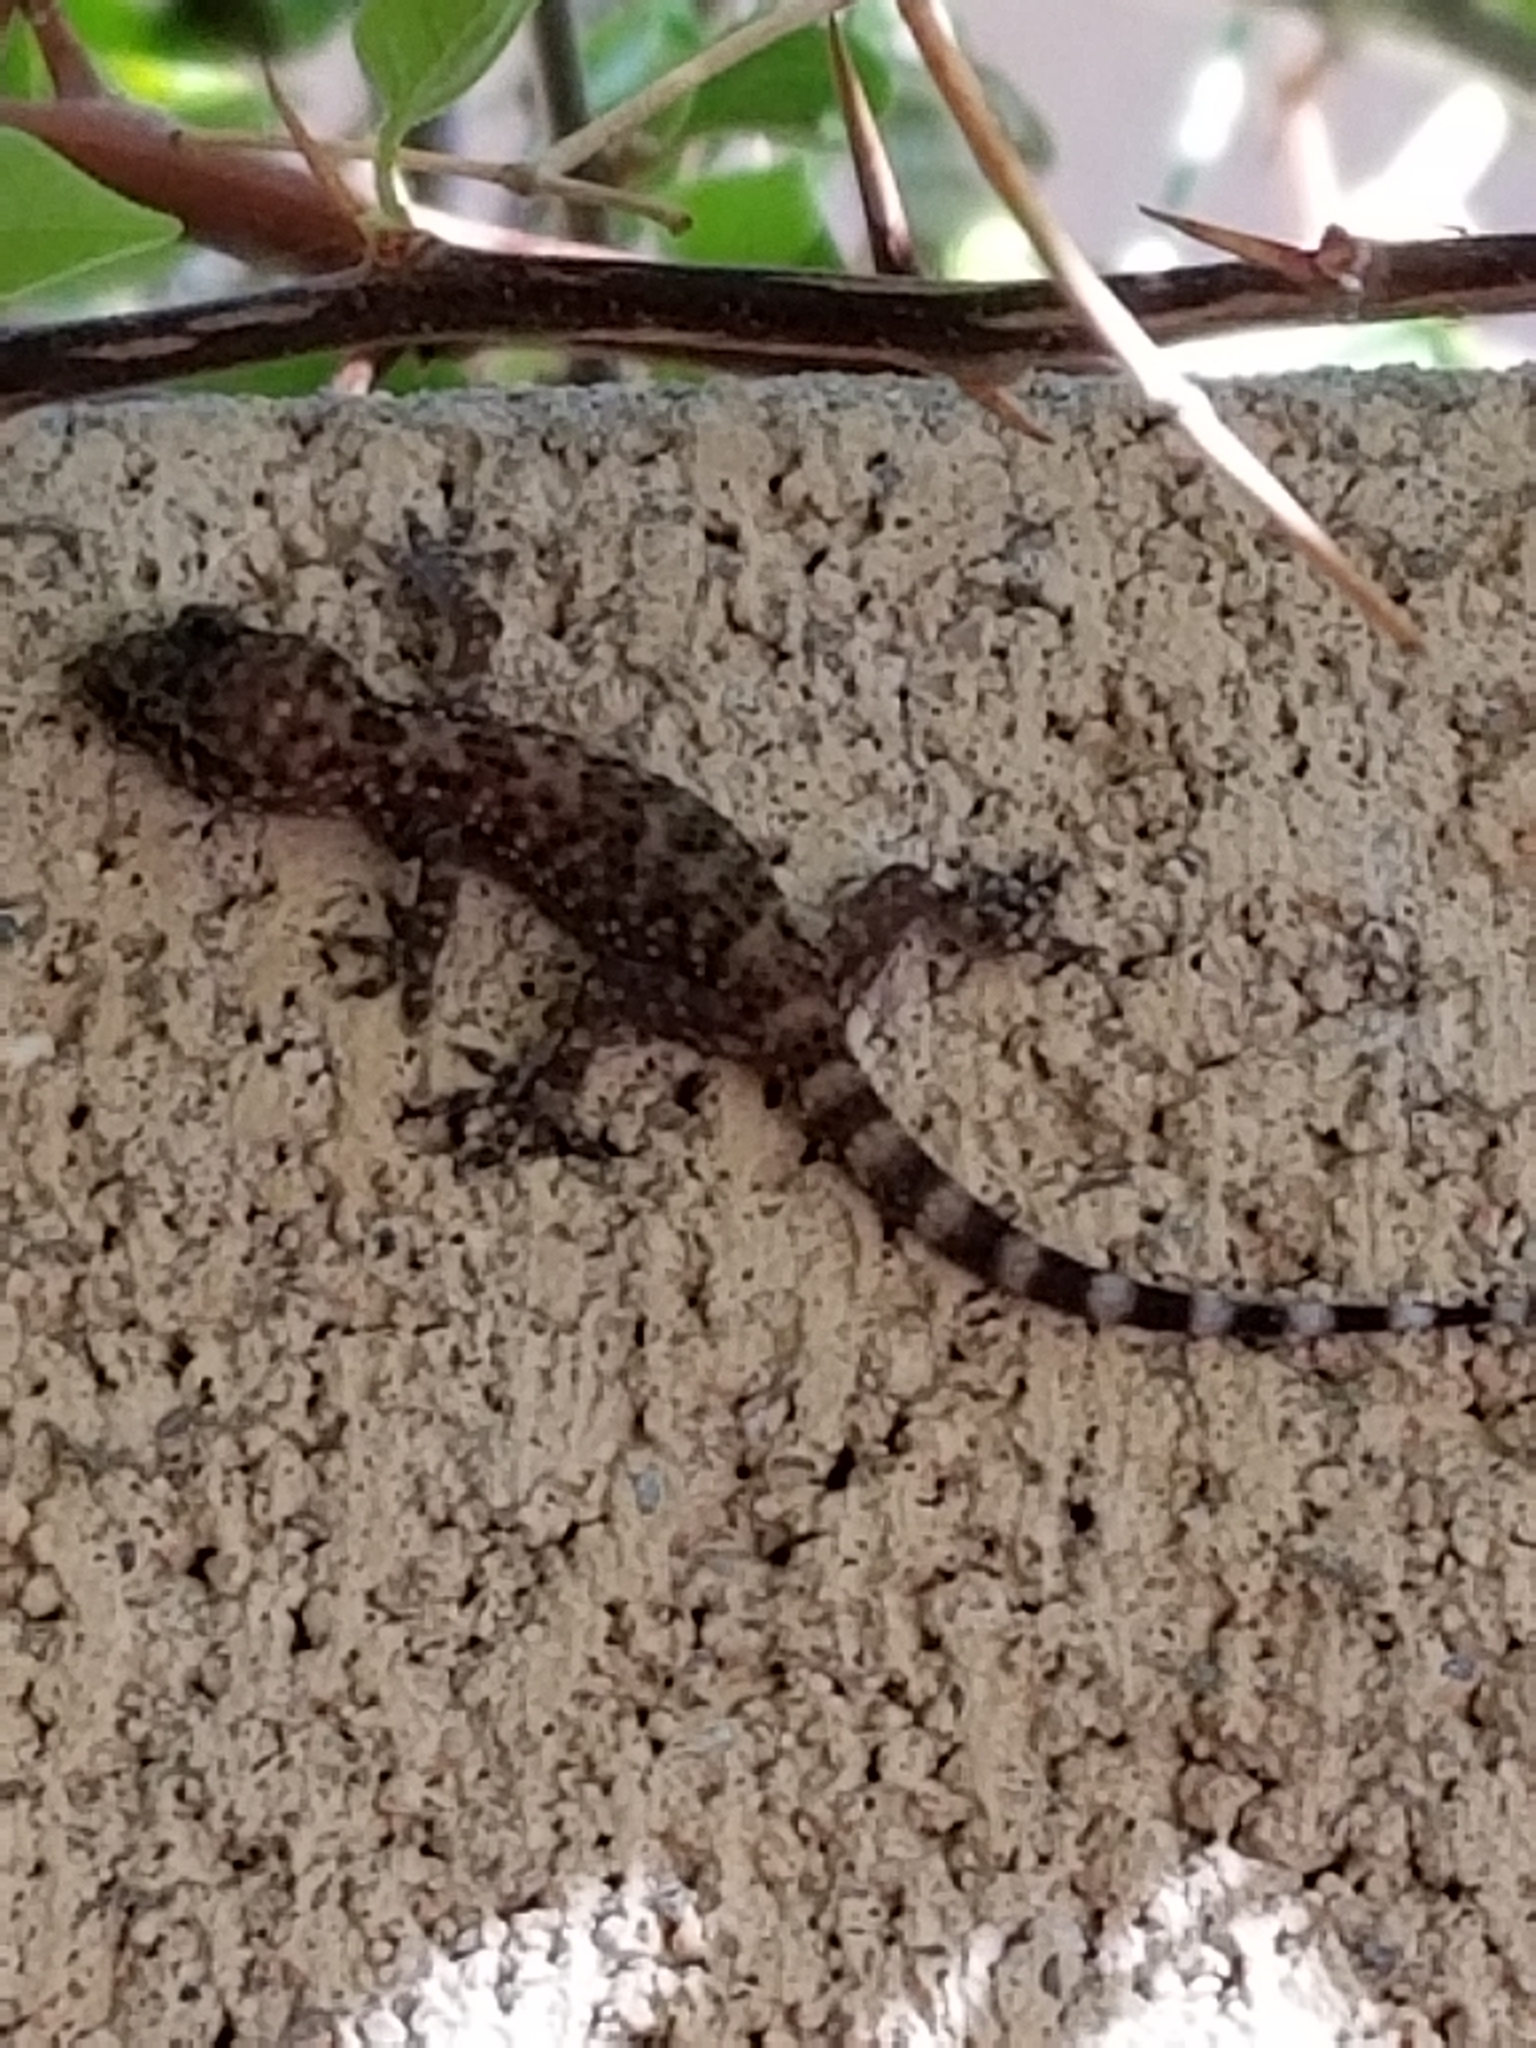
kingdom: Animalia
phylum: Chordata
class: Squamata
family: Gekkonidae
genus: Hemidactylus
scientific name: Hemidactylus turcicus
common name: Turkish gecko
